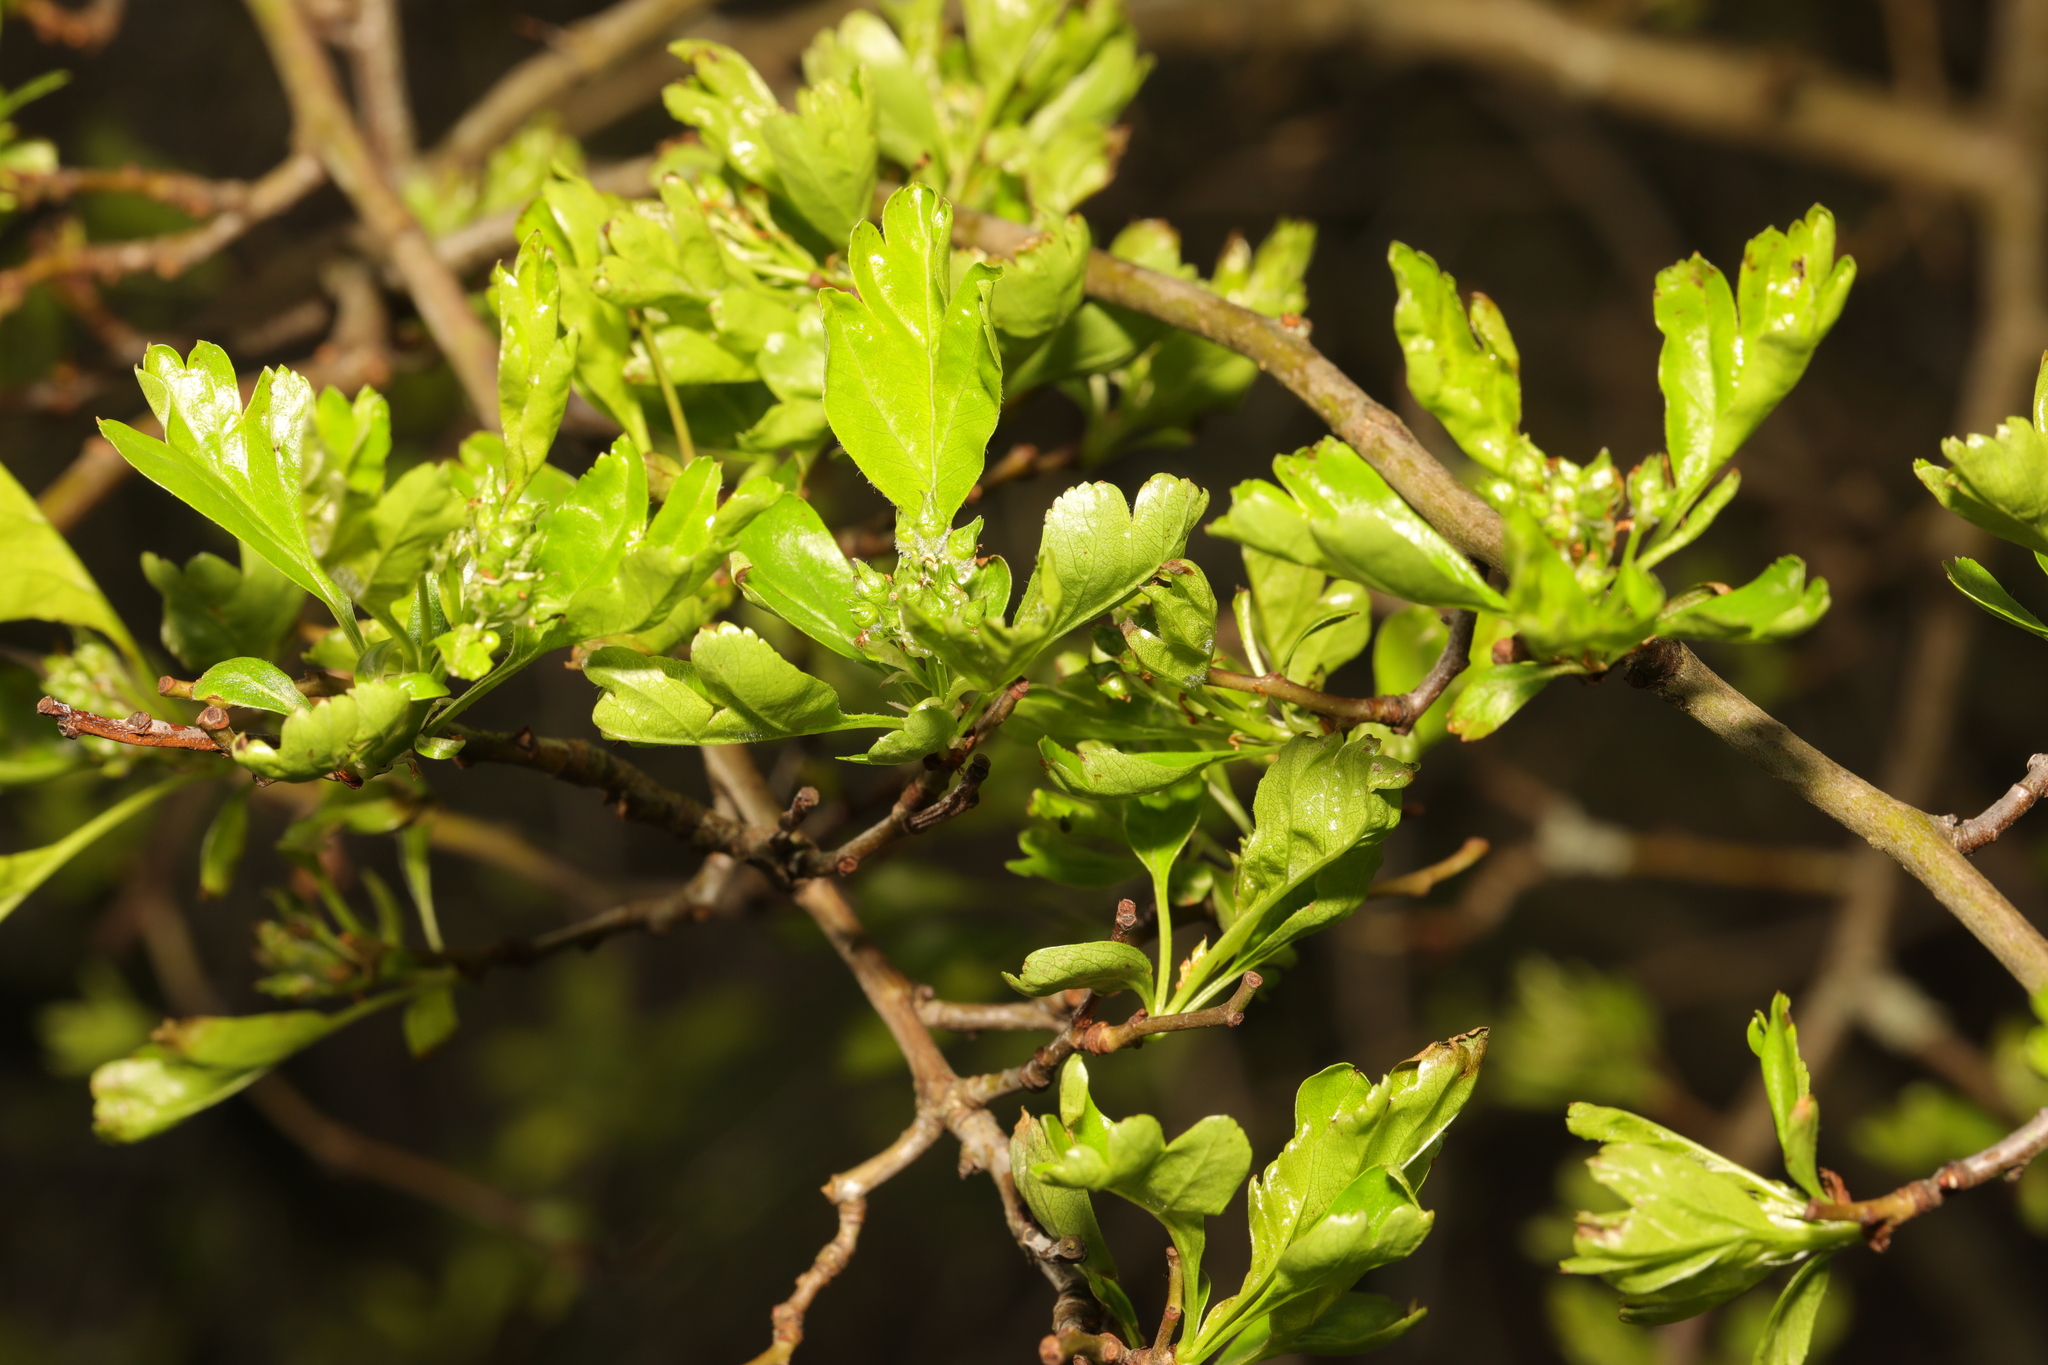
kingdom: Plantae
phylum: Tracheophyta
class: Magnoliopsida
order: Rosales
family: Rosaceae
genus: Crataegus
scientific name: Crataegus monogyna
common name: Hawthorn
